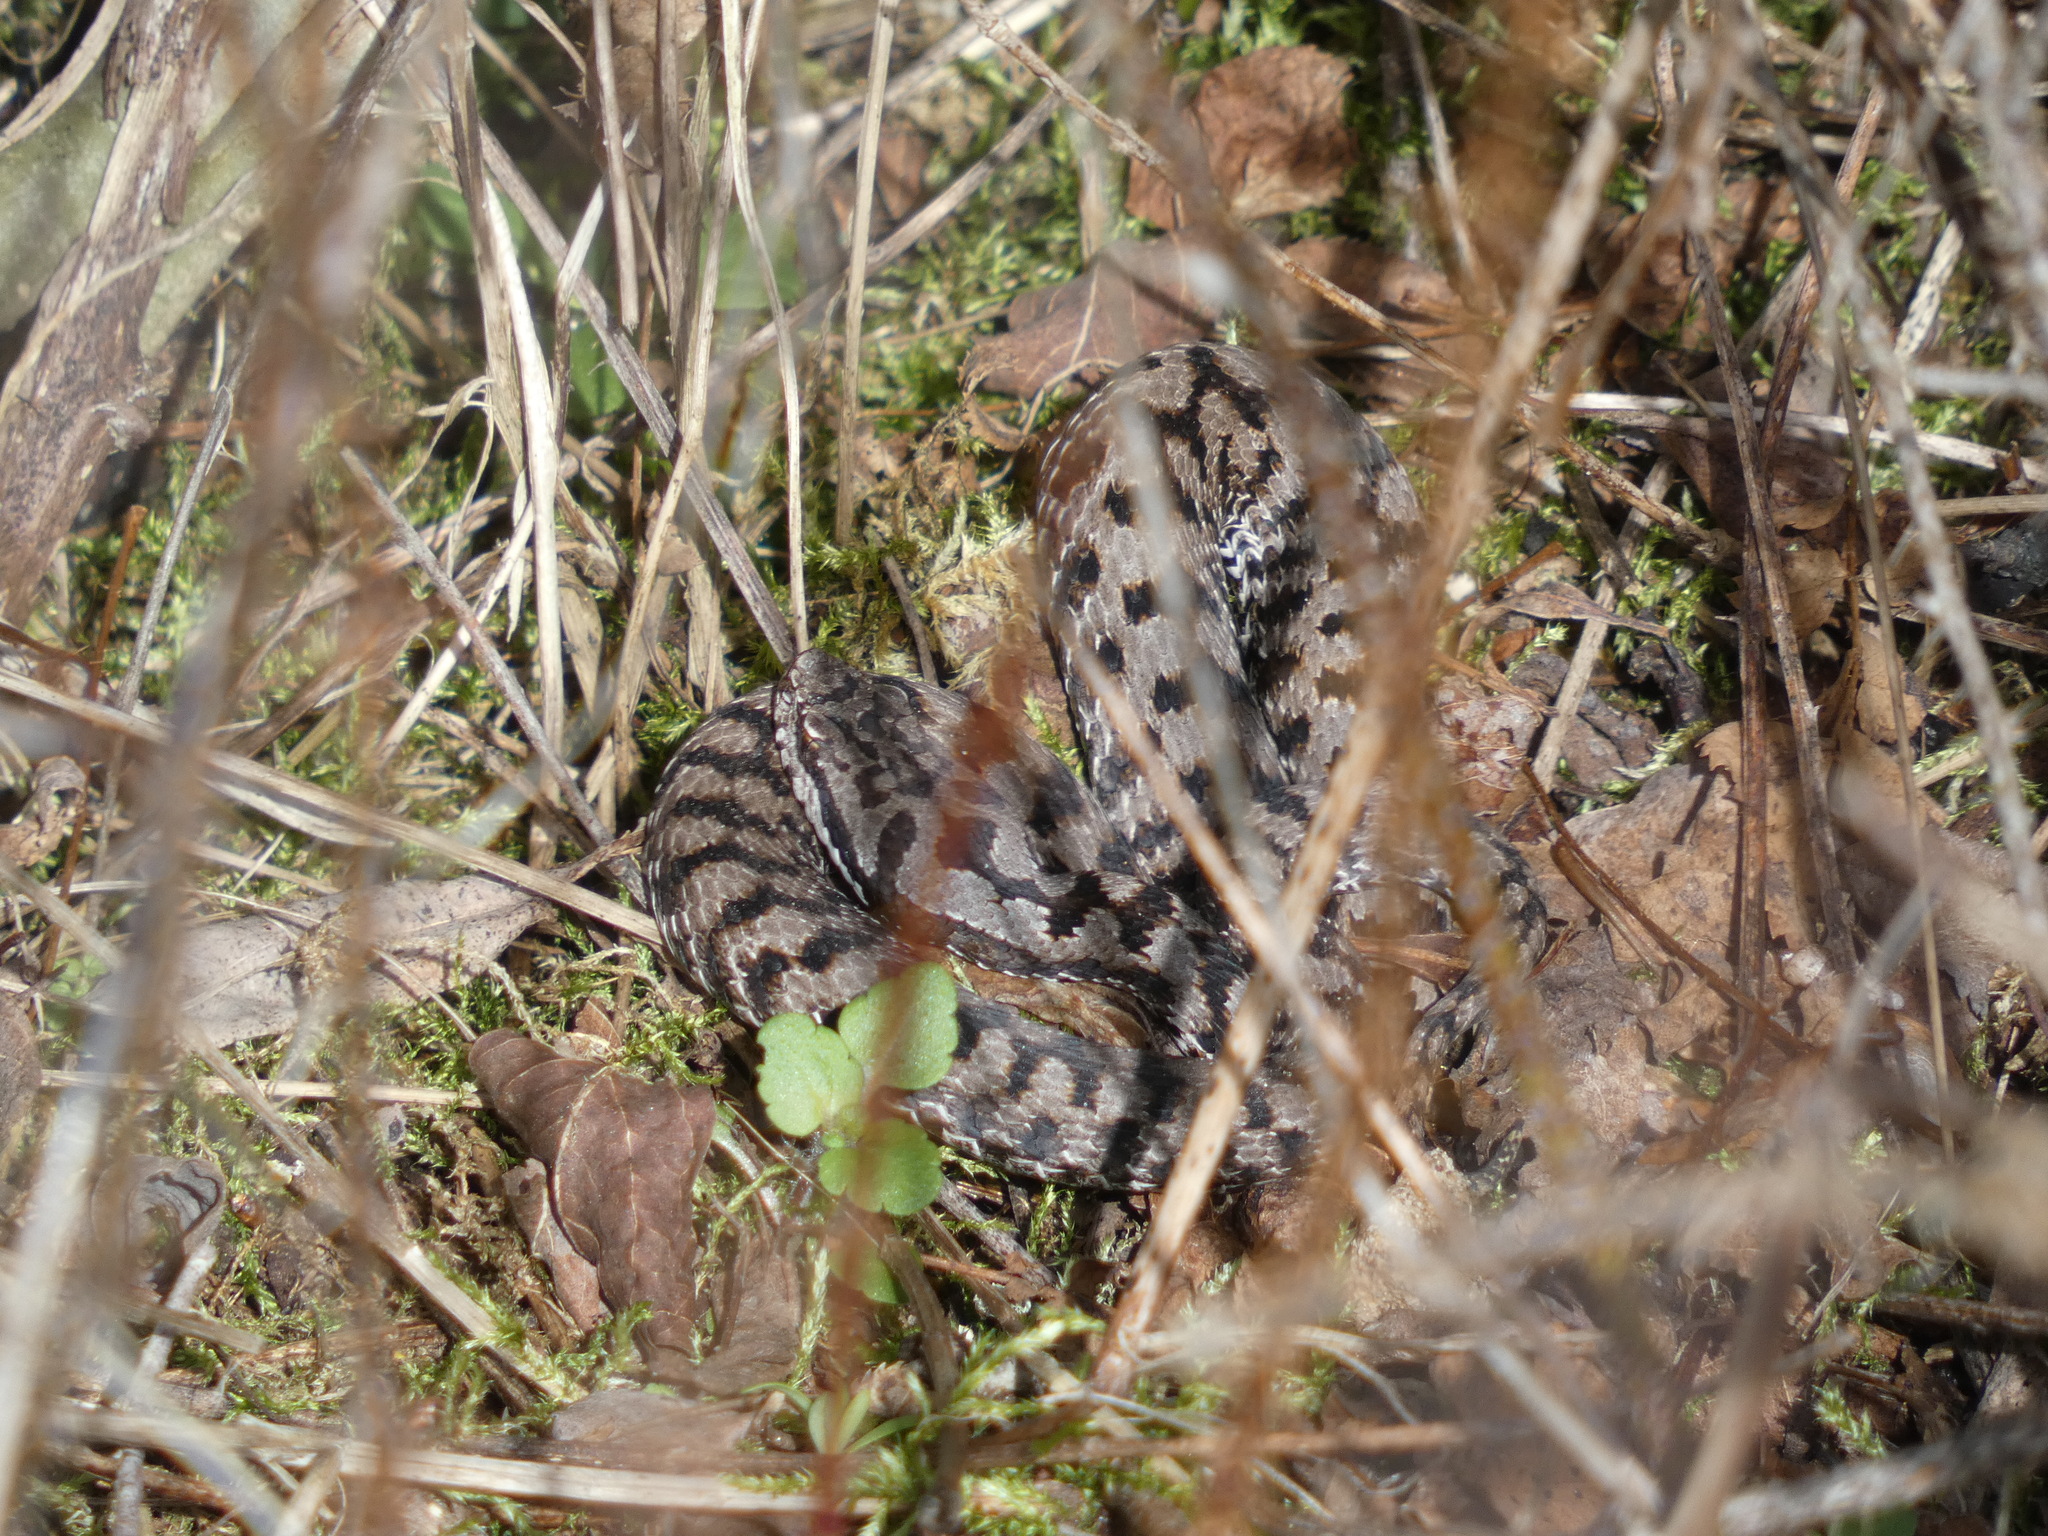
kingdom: Animalia
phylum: Chordata
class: Squamata
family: Viperidae
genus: Vipera
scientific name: Vipera aspis
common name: Asp viper
